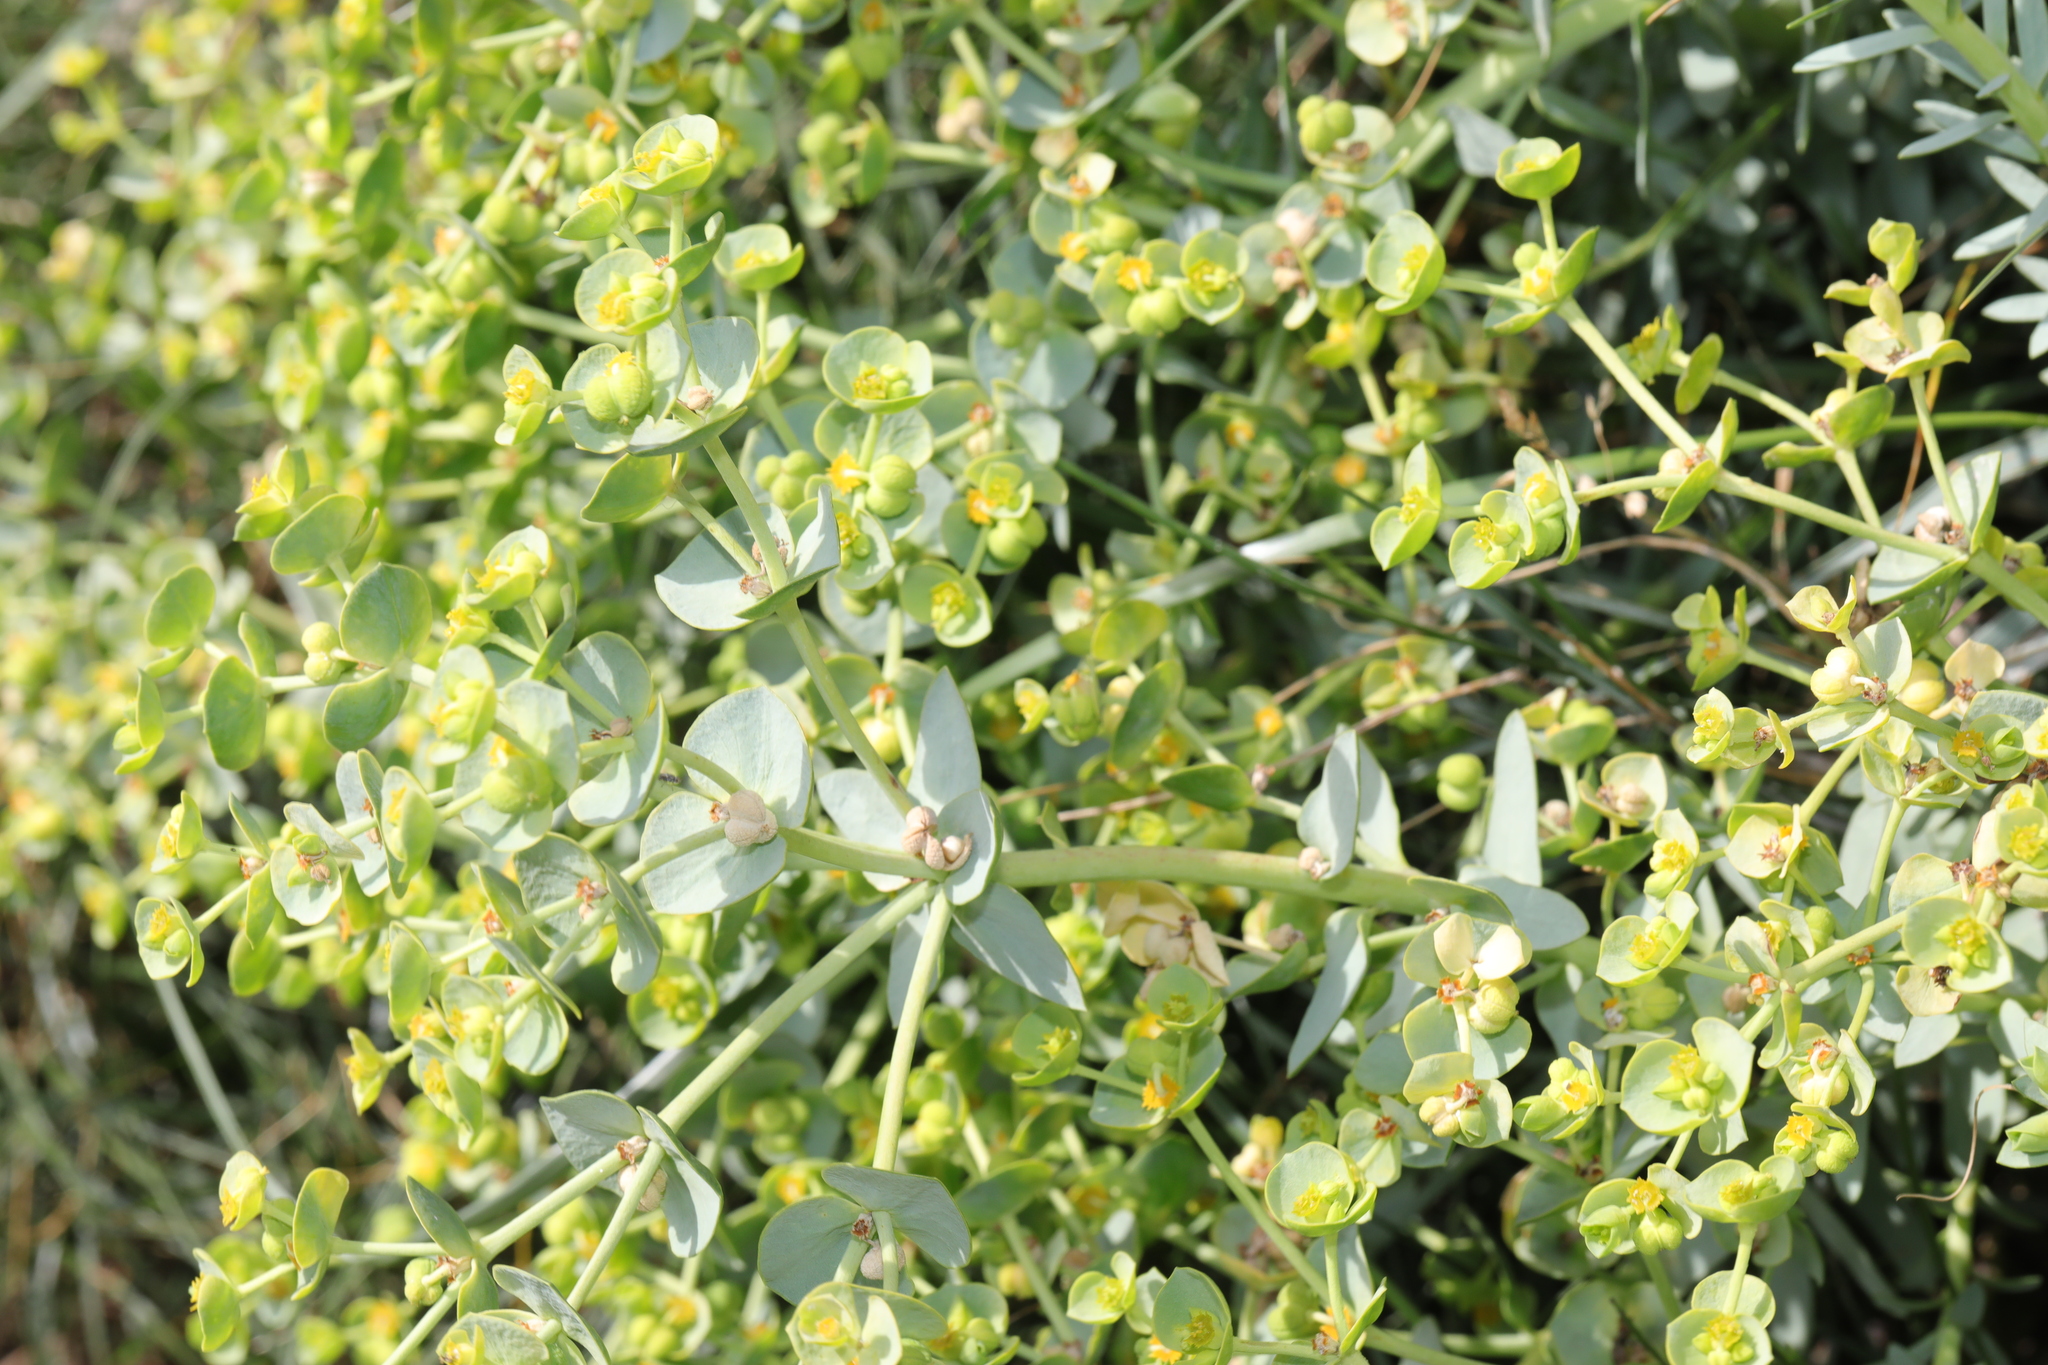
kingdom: Plantae
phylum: Tracheophyta
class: Magnoliopsida
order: Malpighiales
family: Euphorbiaceae
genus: Euphorbia
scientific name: Euphorbia paralias
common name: Sea spurge
